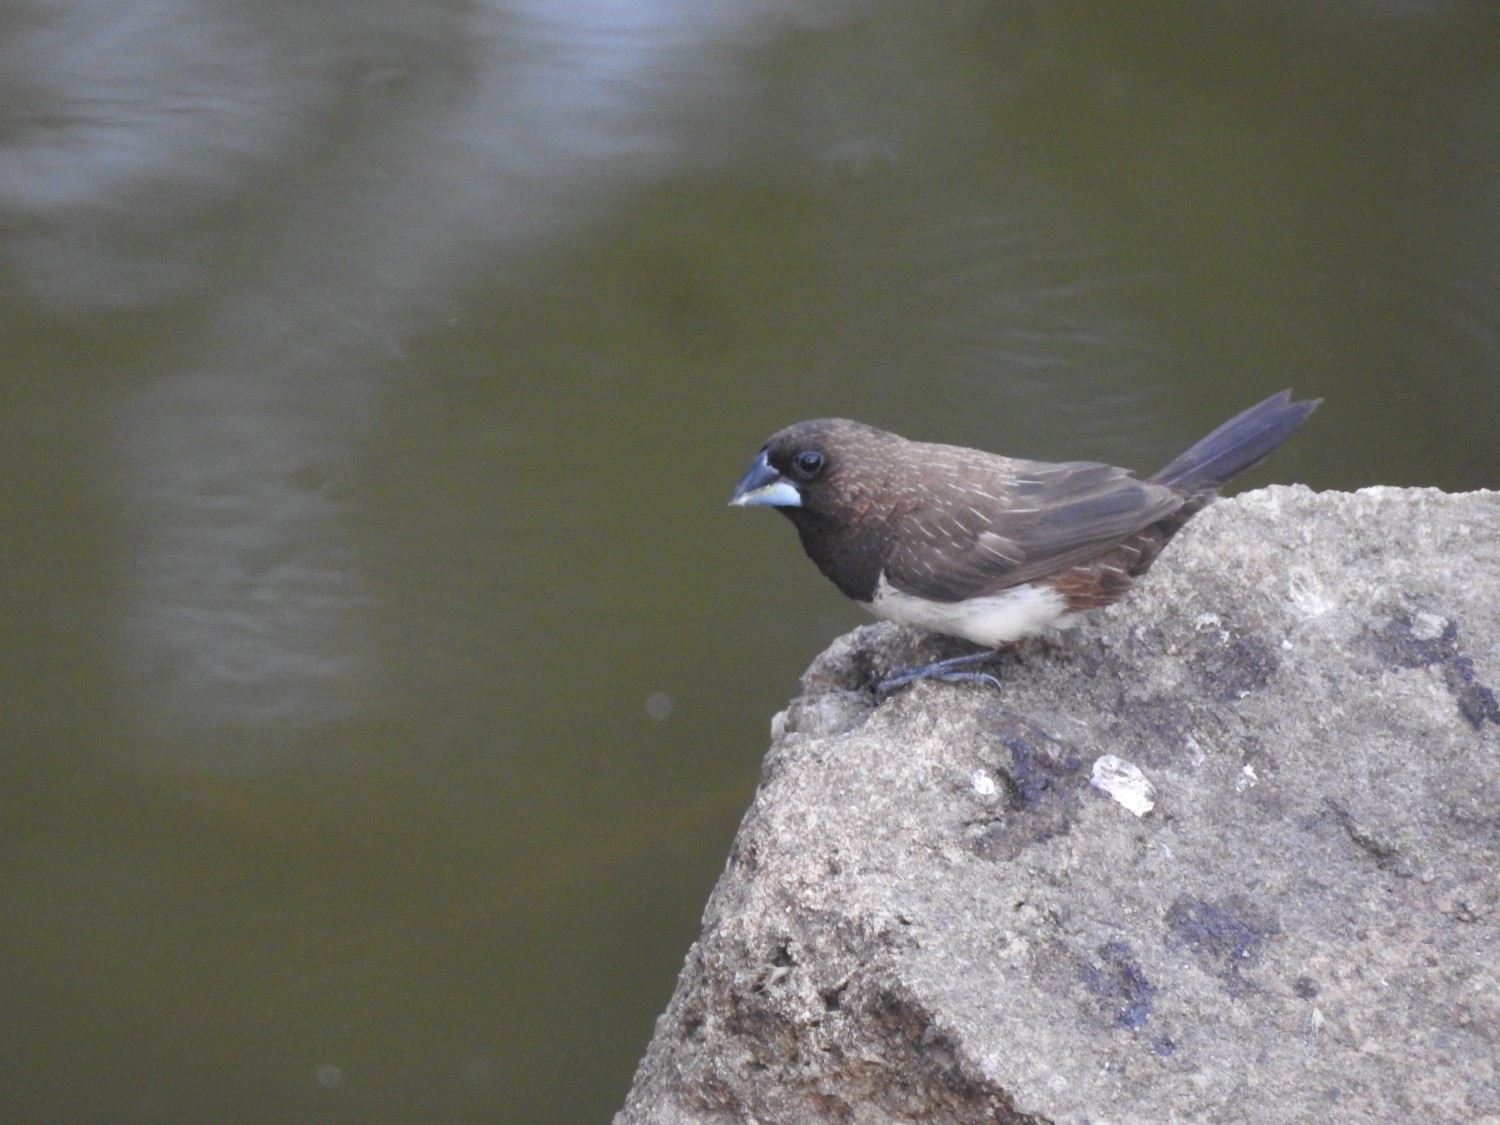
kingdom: Animalia
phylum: Chordata
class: Aves
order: Passeriformes
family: Estrildidae
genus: Lonchura
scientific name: Lonchura striata
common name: White-rumped munia
